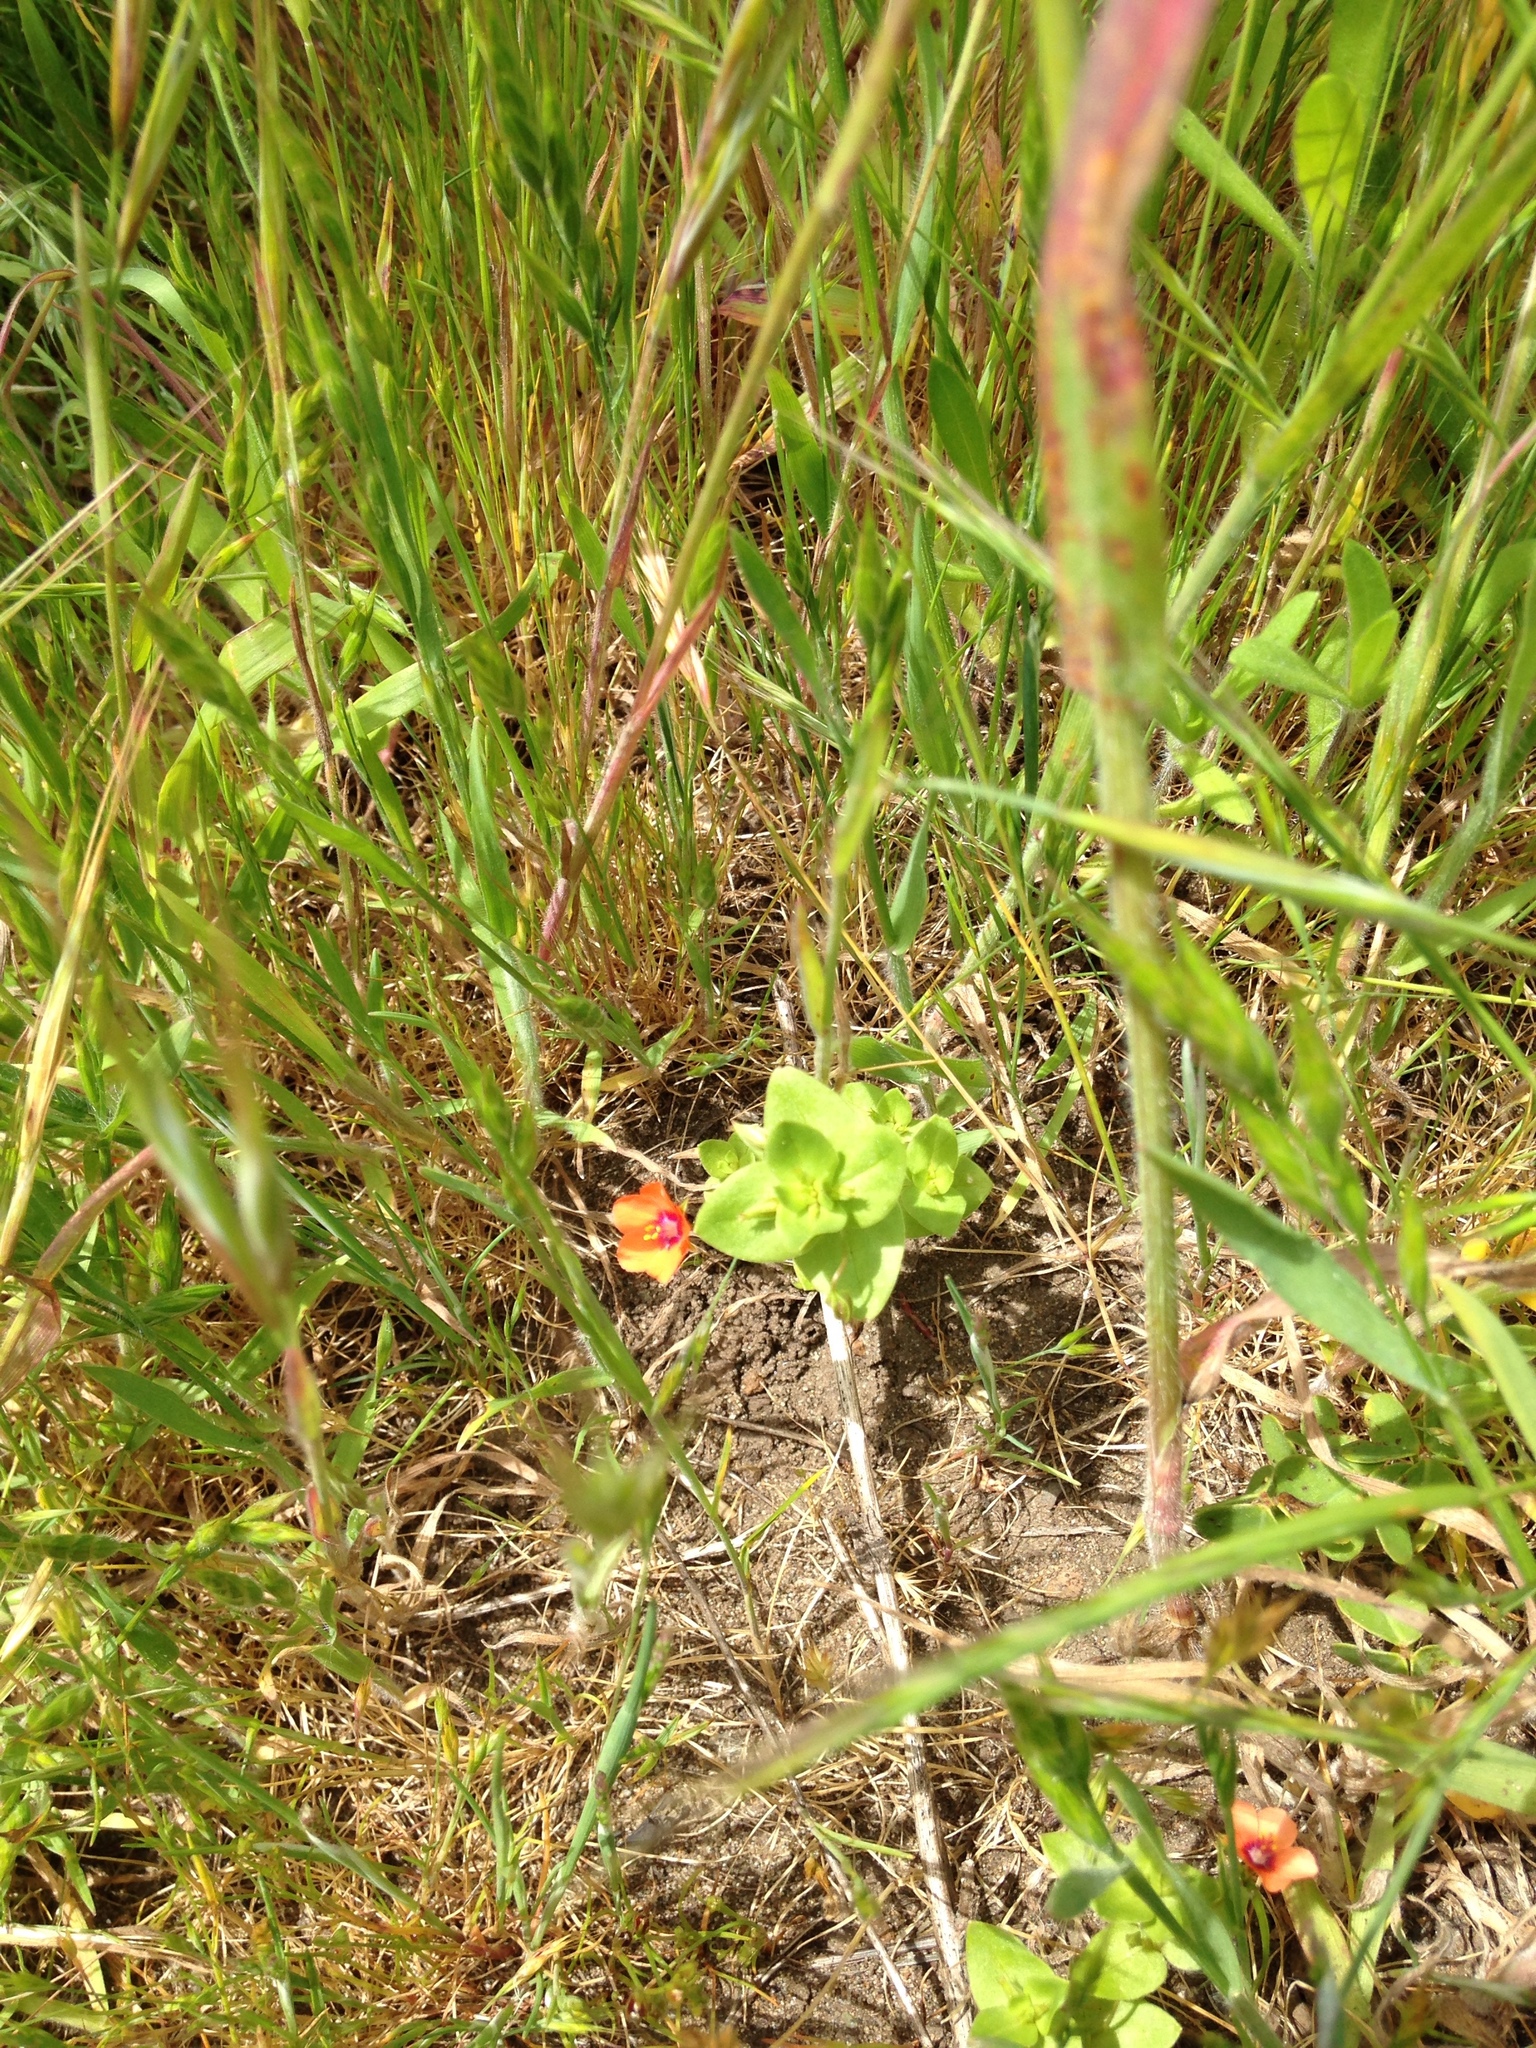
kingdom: Plantae
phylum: Tracheophyta
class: Magnoliopsida
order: Ericales
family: Primulaceae
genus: Lysimachia
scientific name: Lysimachia arvensis
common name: Scarlet pimpernel
